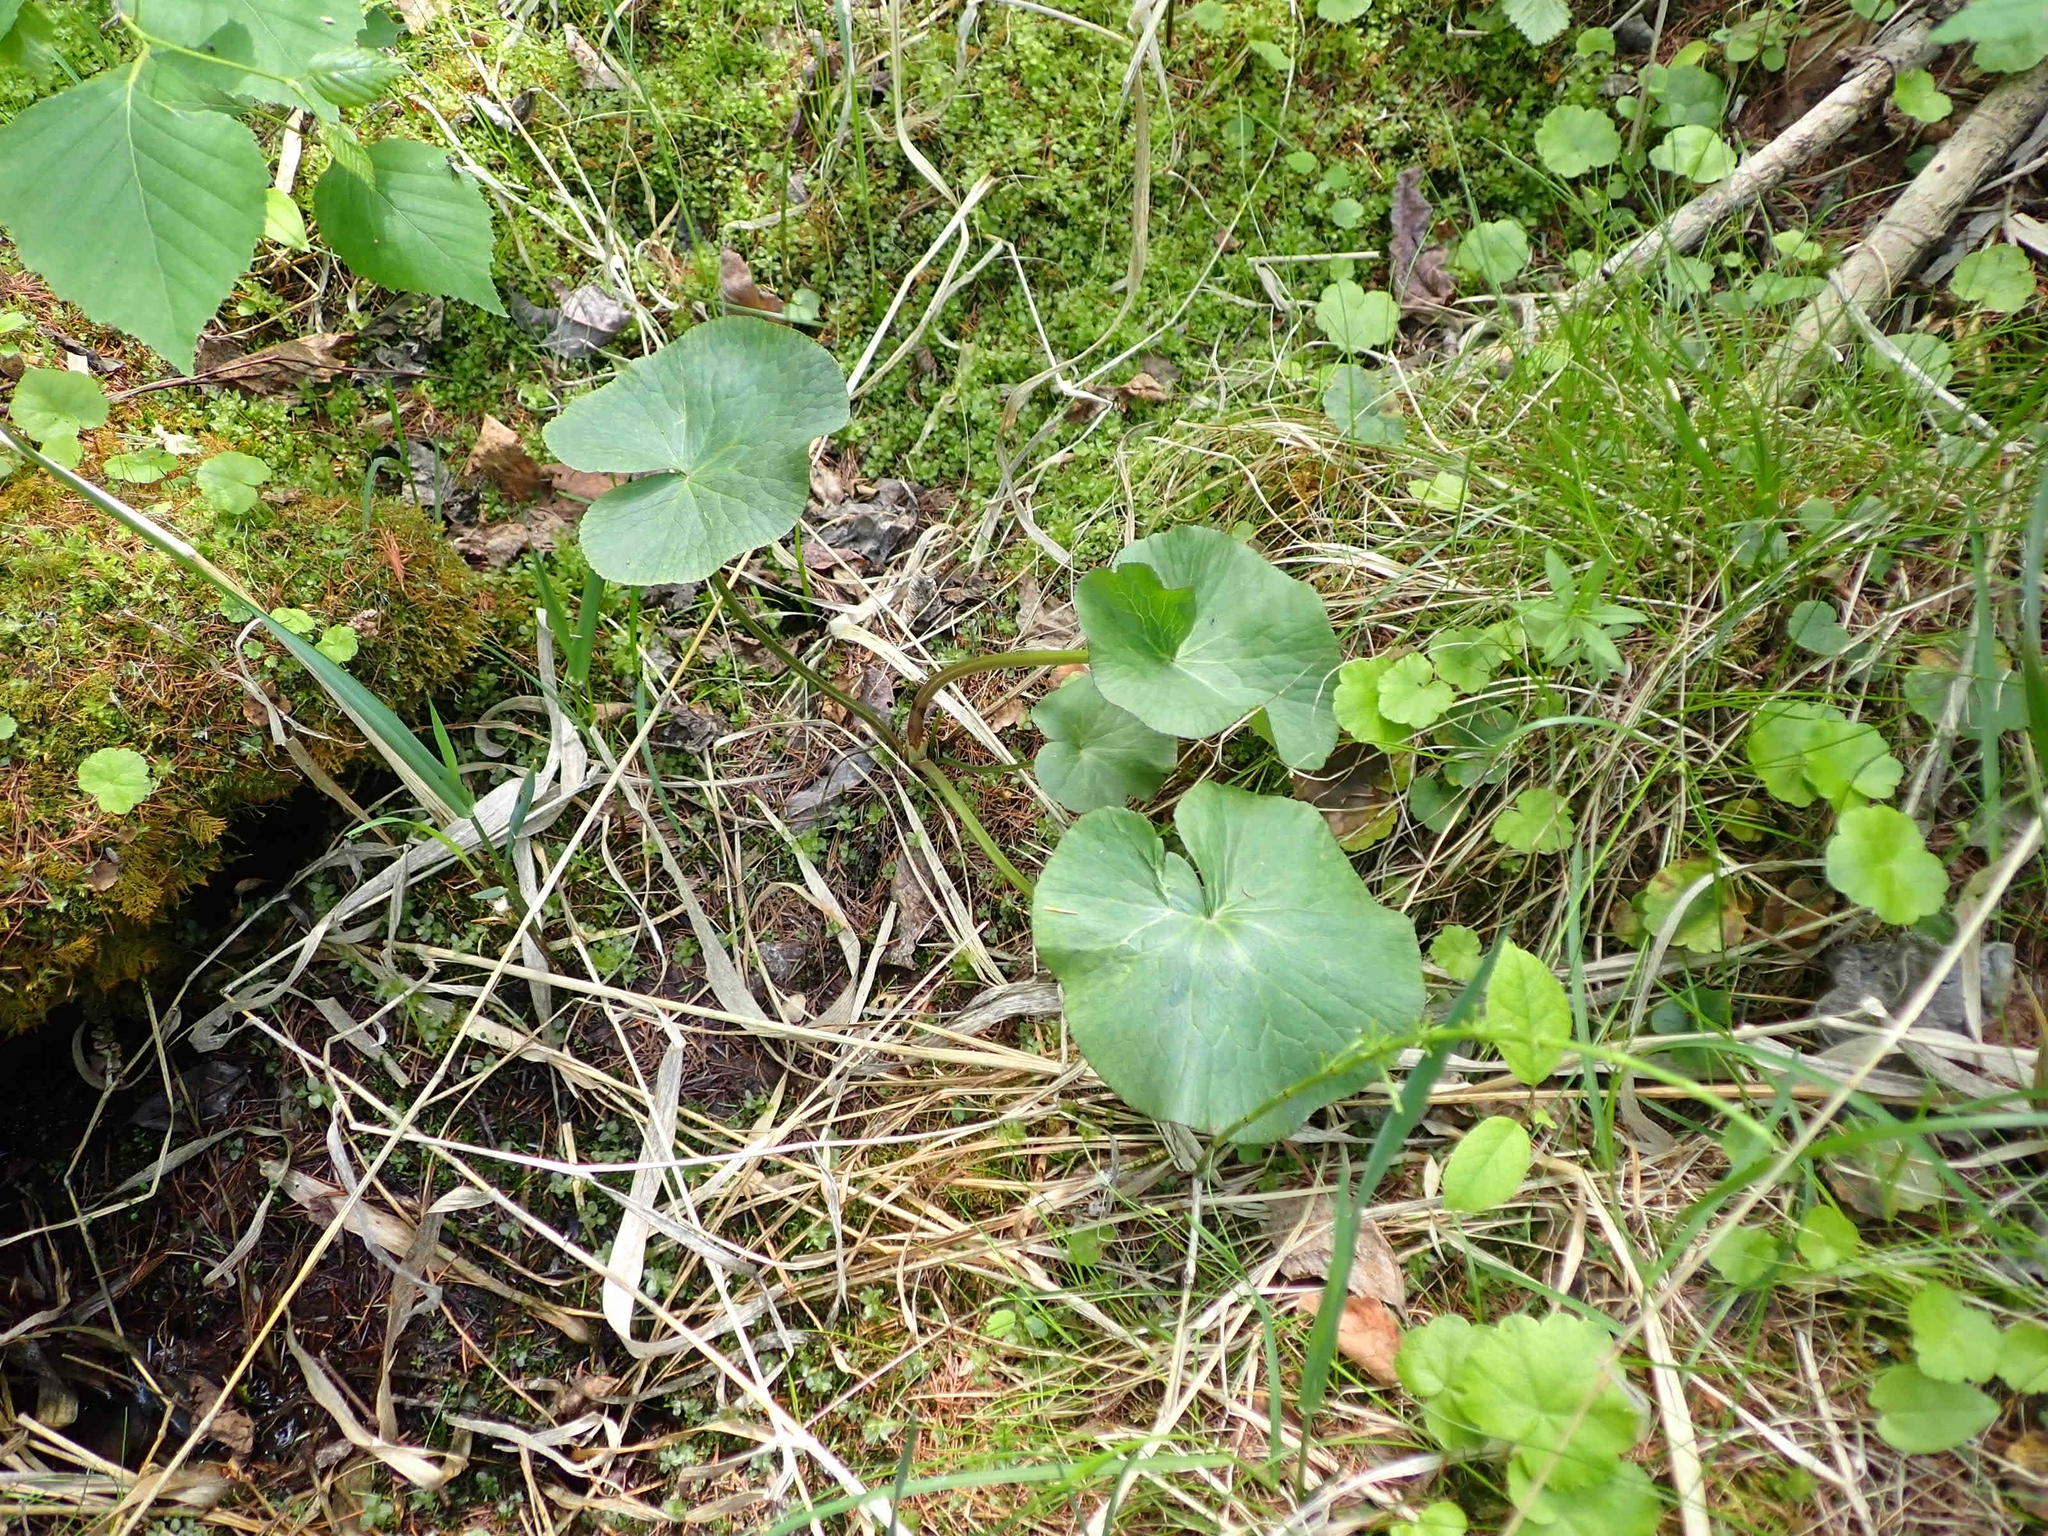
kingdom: Plantae
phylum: Tracheophyta
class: Magnoliopsida
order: Ranunculales
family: Ranunculaceae
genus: Caltha
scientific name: Caltha palustris
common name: Marsh marigold
